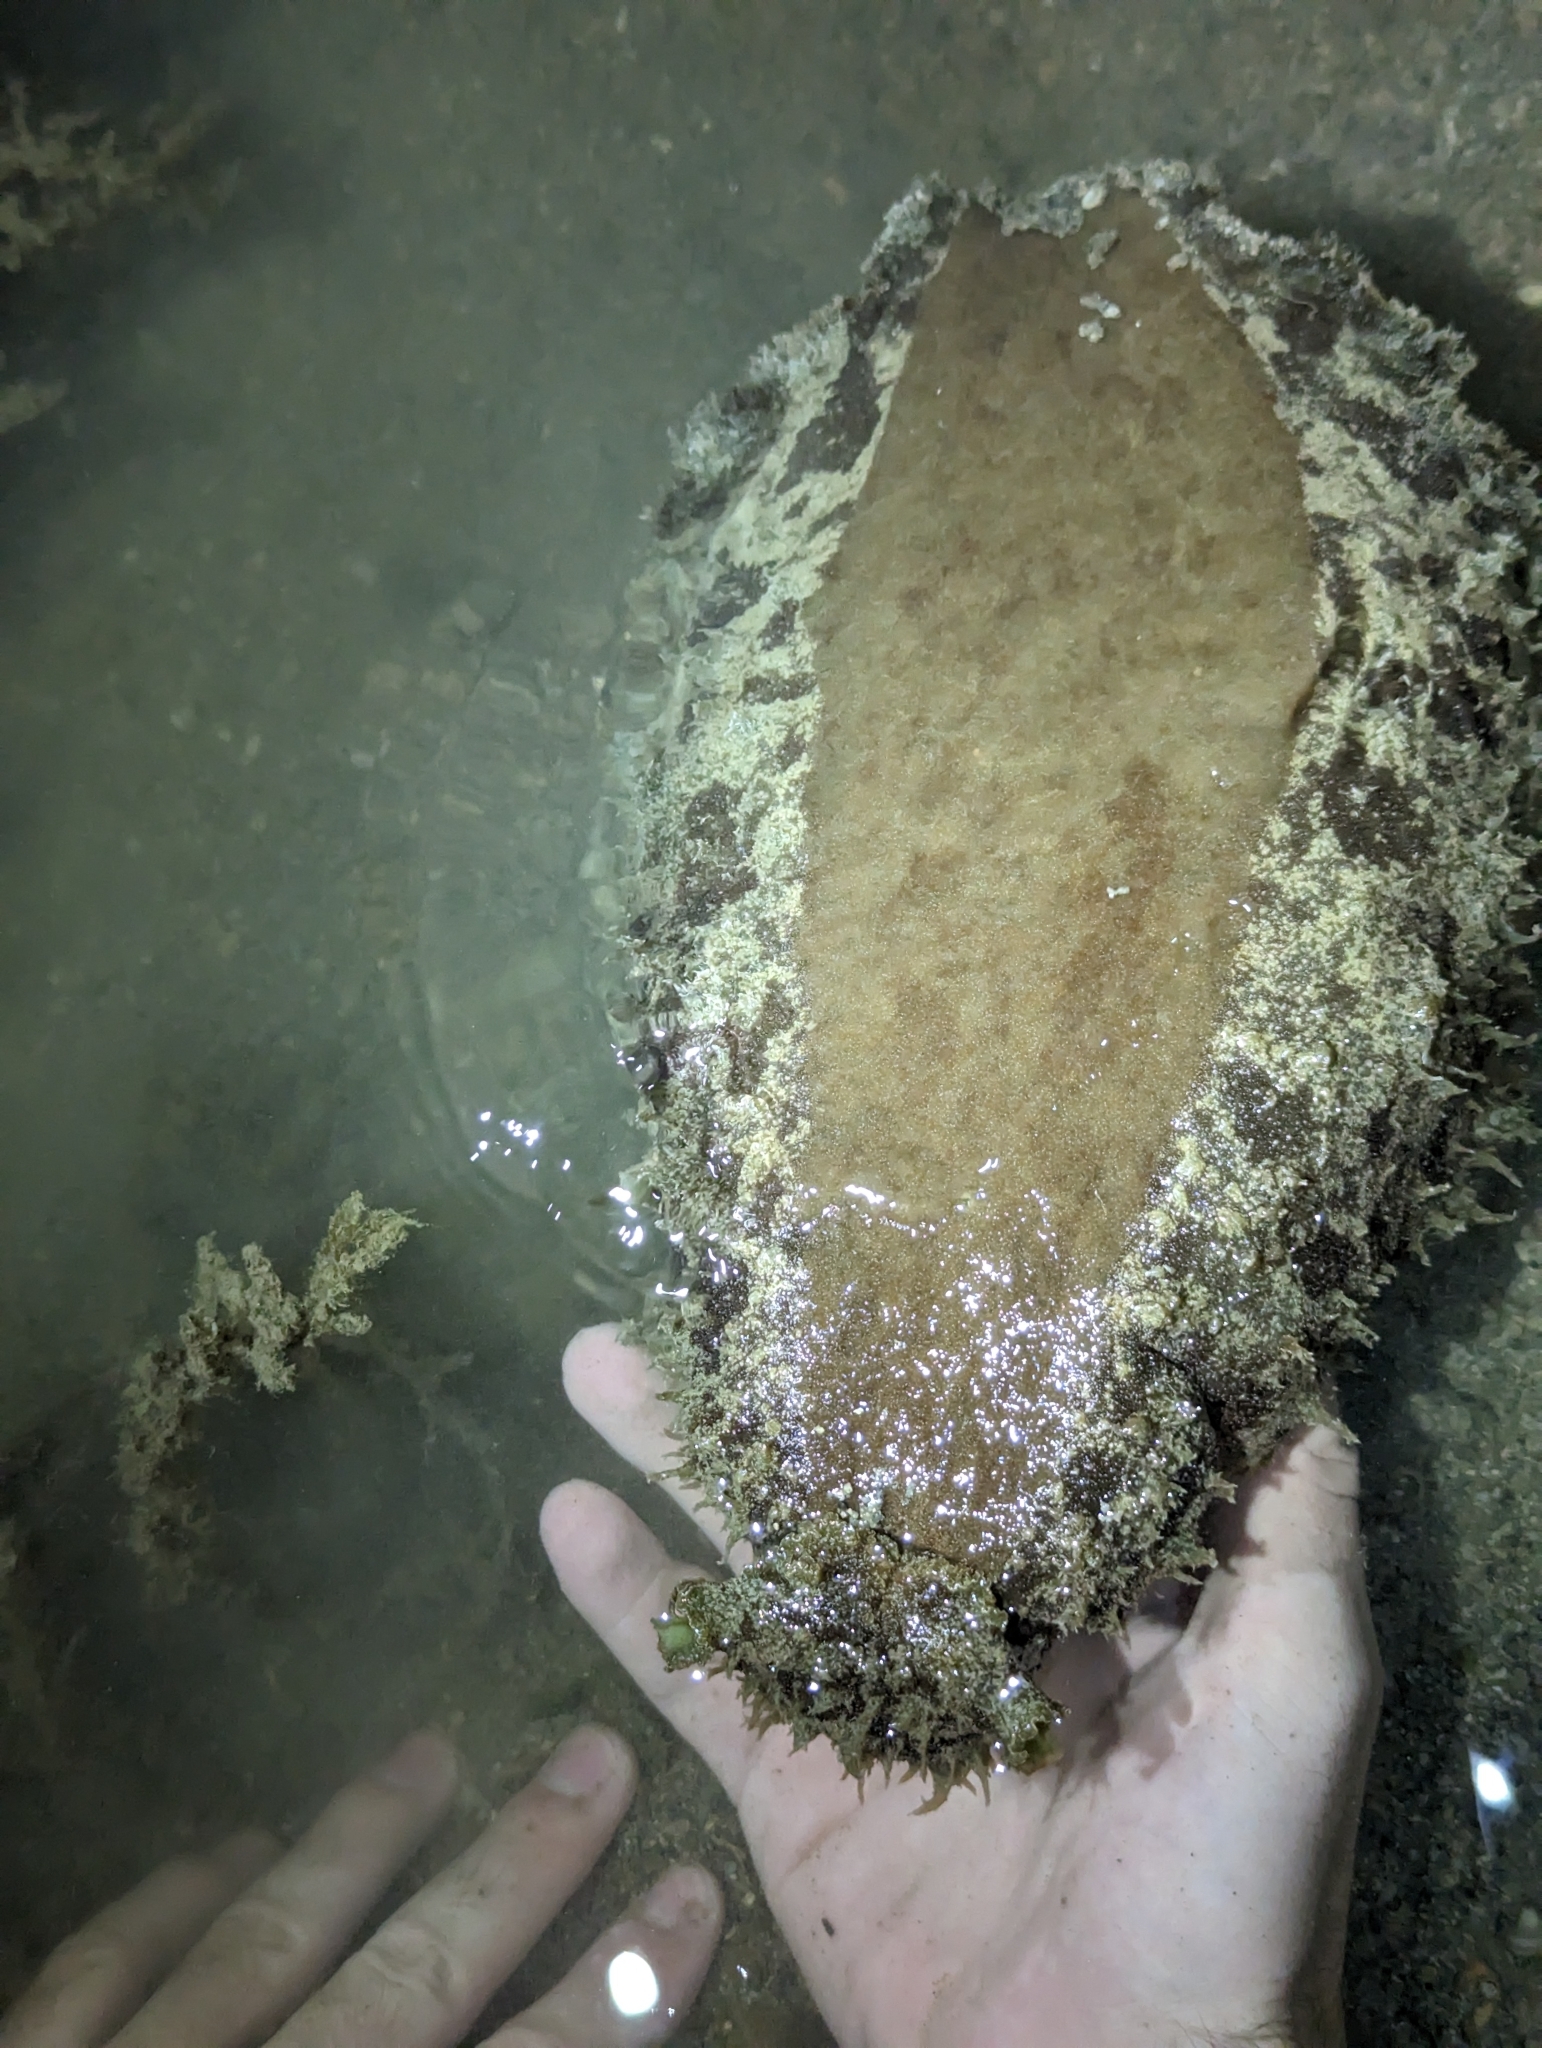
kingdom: Animalia
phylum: Mollusca
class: Gastropoda
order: Aplysiida
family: Aplysiidae
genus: Dolabella
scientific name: Dolabella auricularia
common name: Blunt-end seahare
